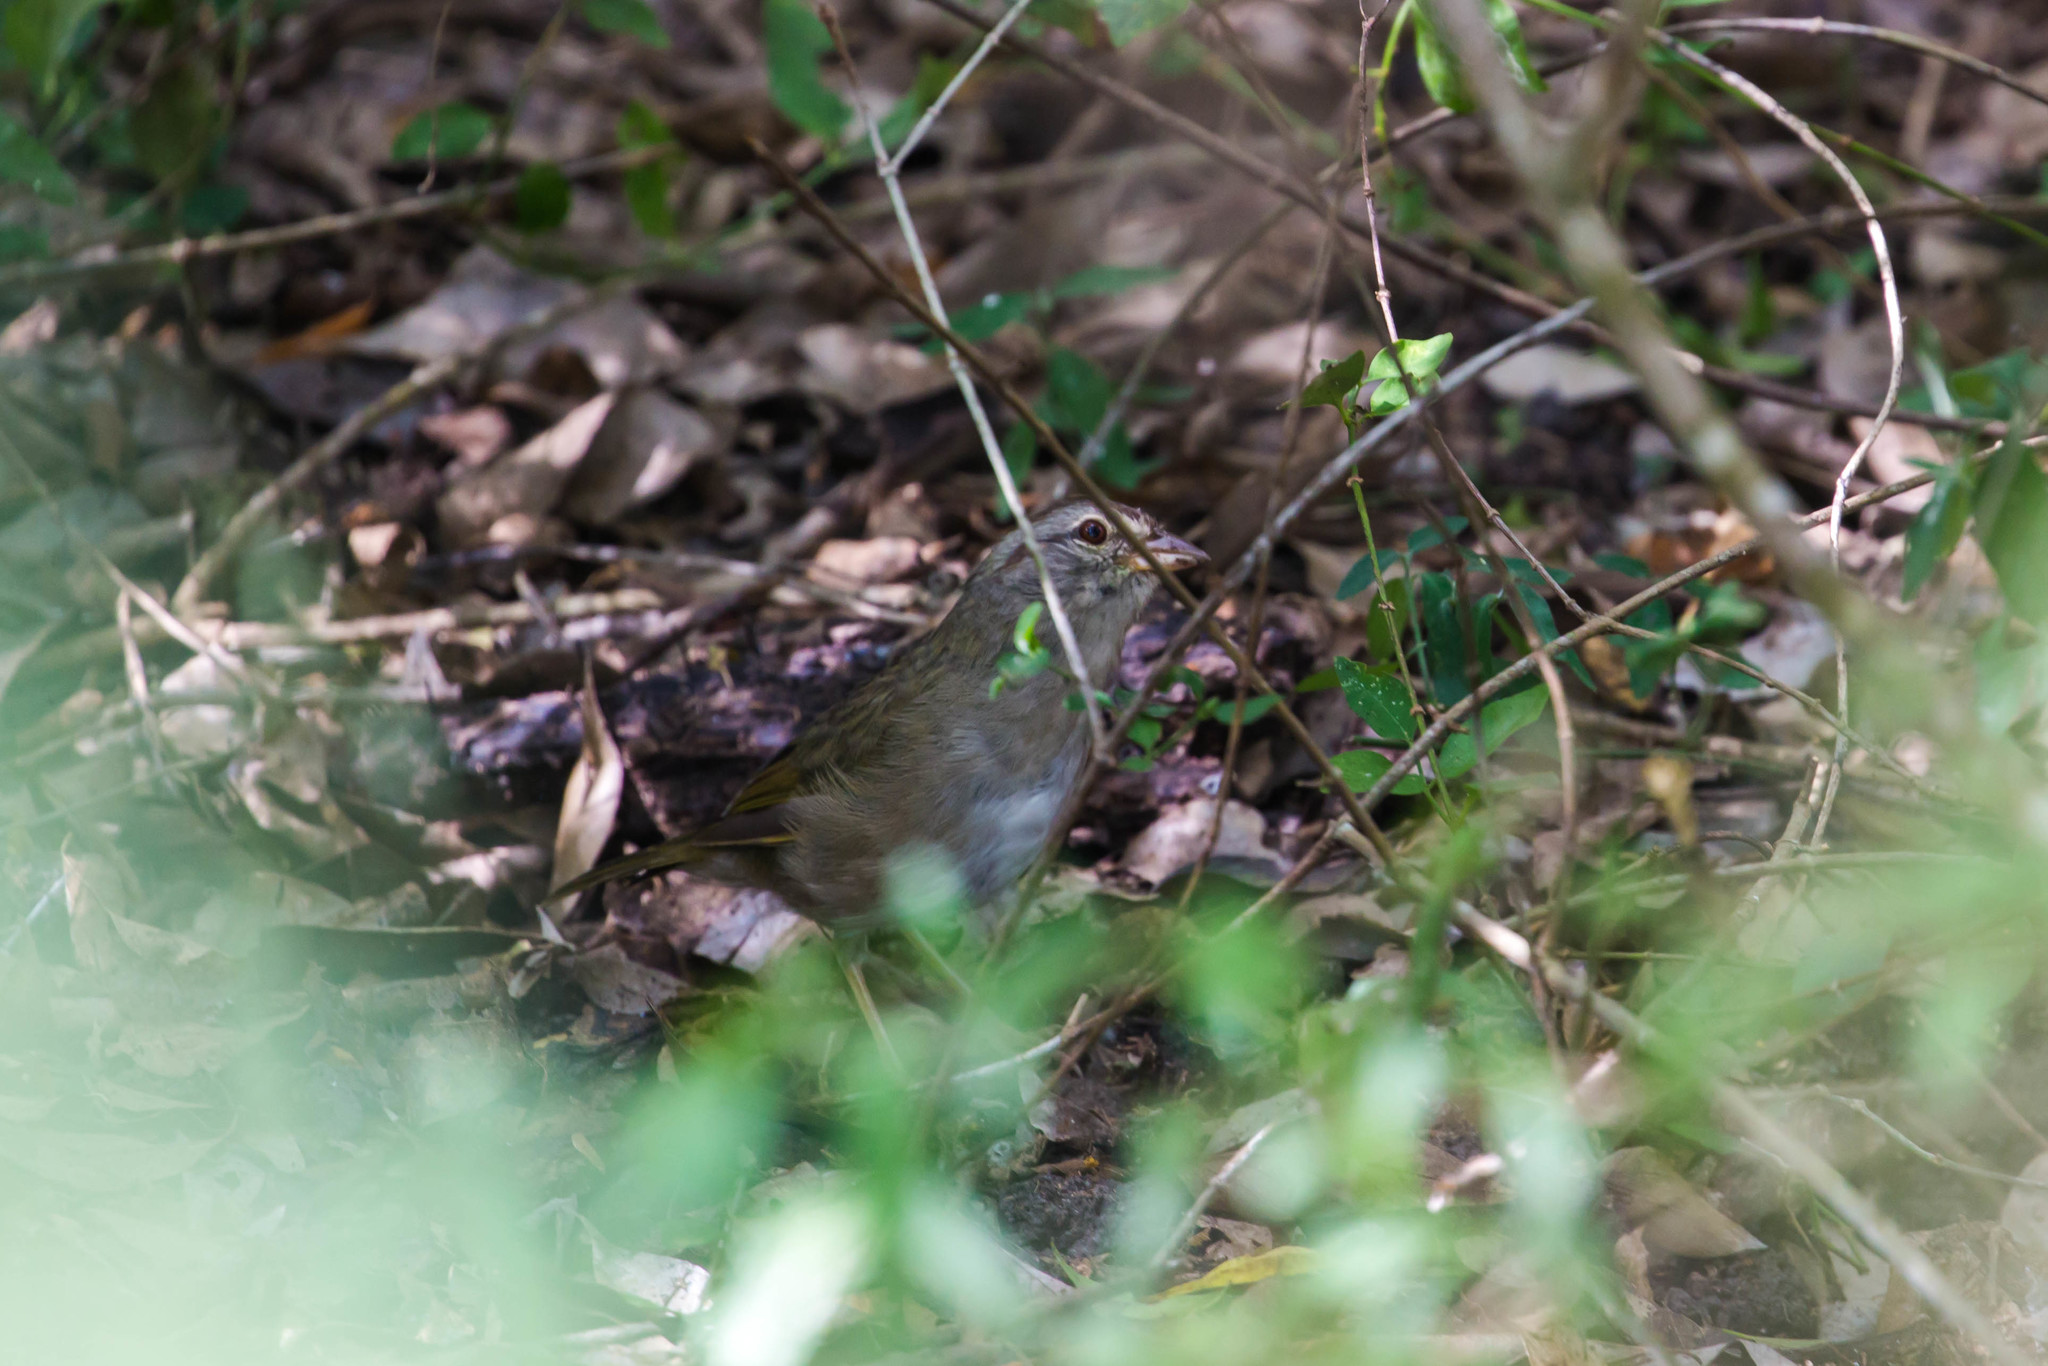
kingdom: Animalia
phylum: Chordata
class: Aves
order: Passeriformes
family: Passerellidae
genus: Arremonops
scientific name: Arremonops rufivirgatus
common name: Olive sparrow
